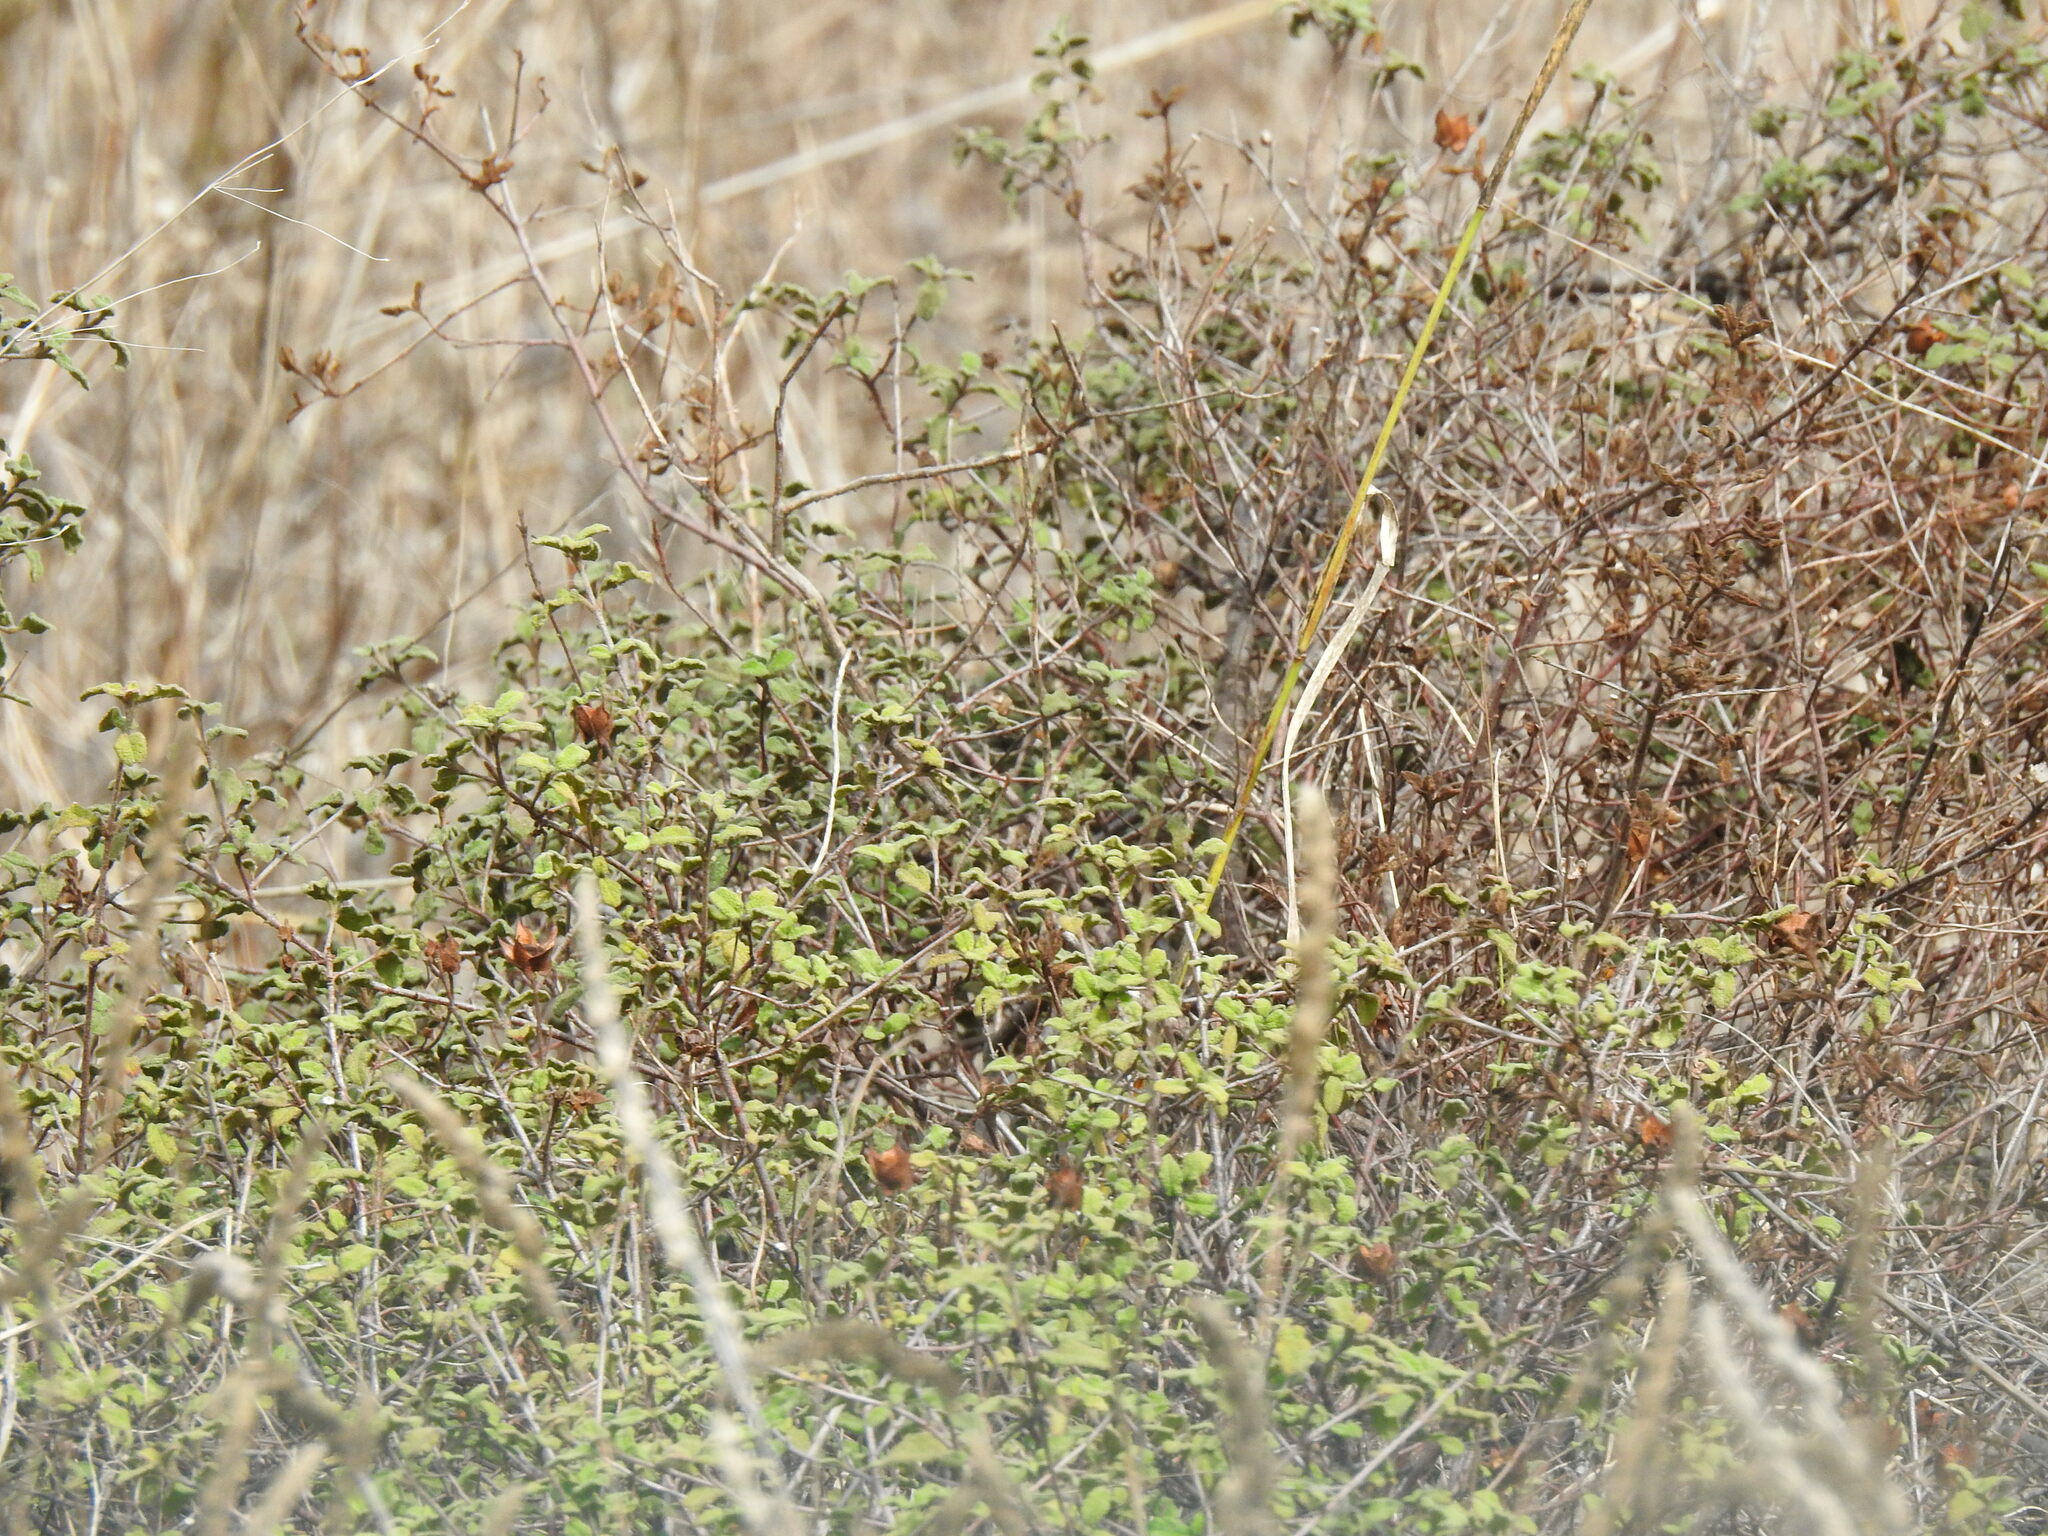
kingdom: Plantae
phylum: Tracheophyta
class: Magnoliopsida
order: Malvales
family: Cistaceae
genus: Cistus
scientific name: Cistus salviifolius
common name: Salvia cistus
